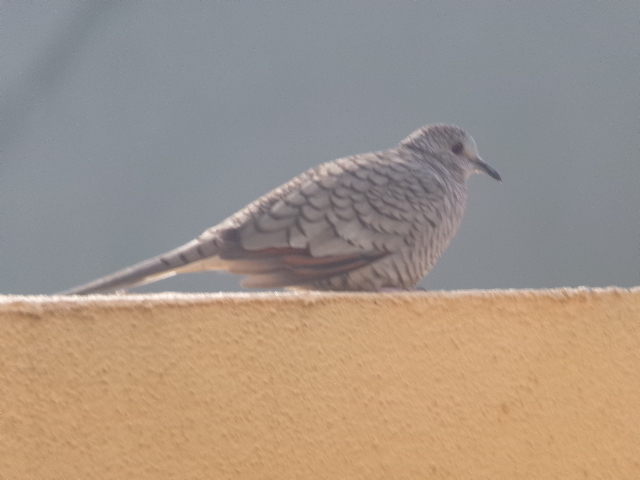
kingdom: Animalia
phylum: Chordata
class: Aves
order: Columbiformes
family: Columbidae
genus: Columbina
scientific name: Columbina inca
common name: Inca dove
